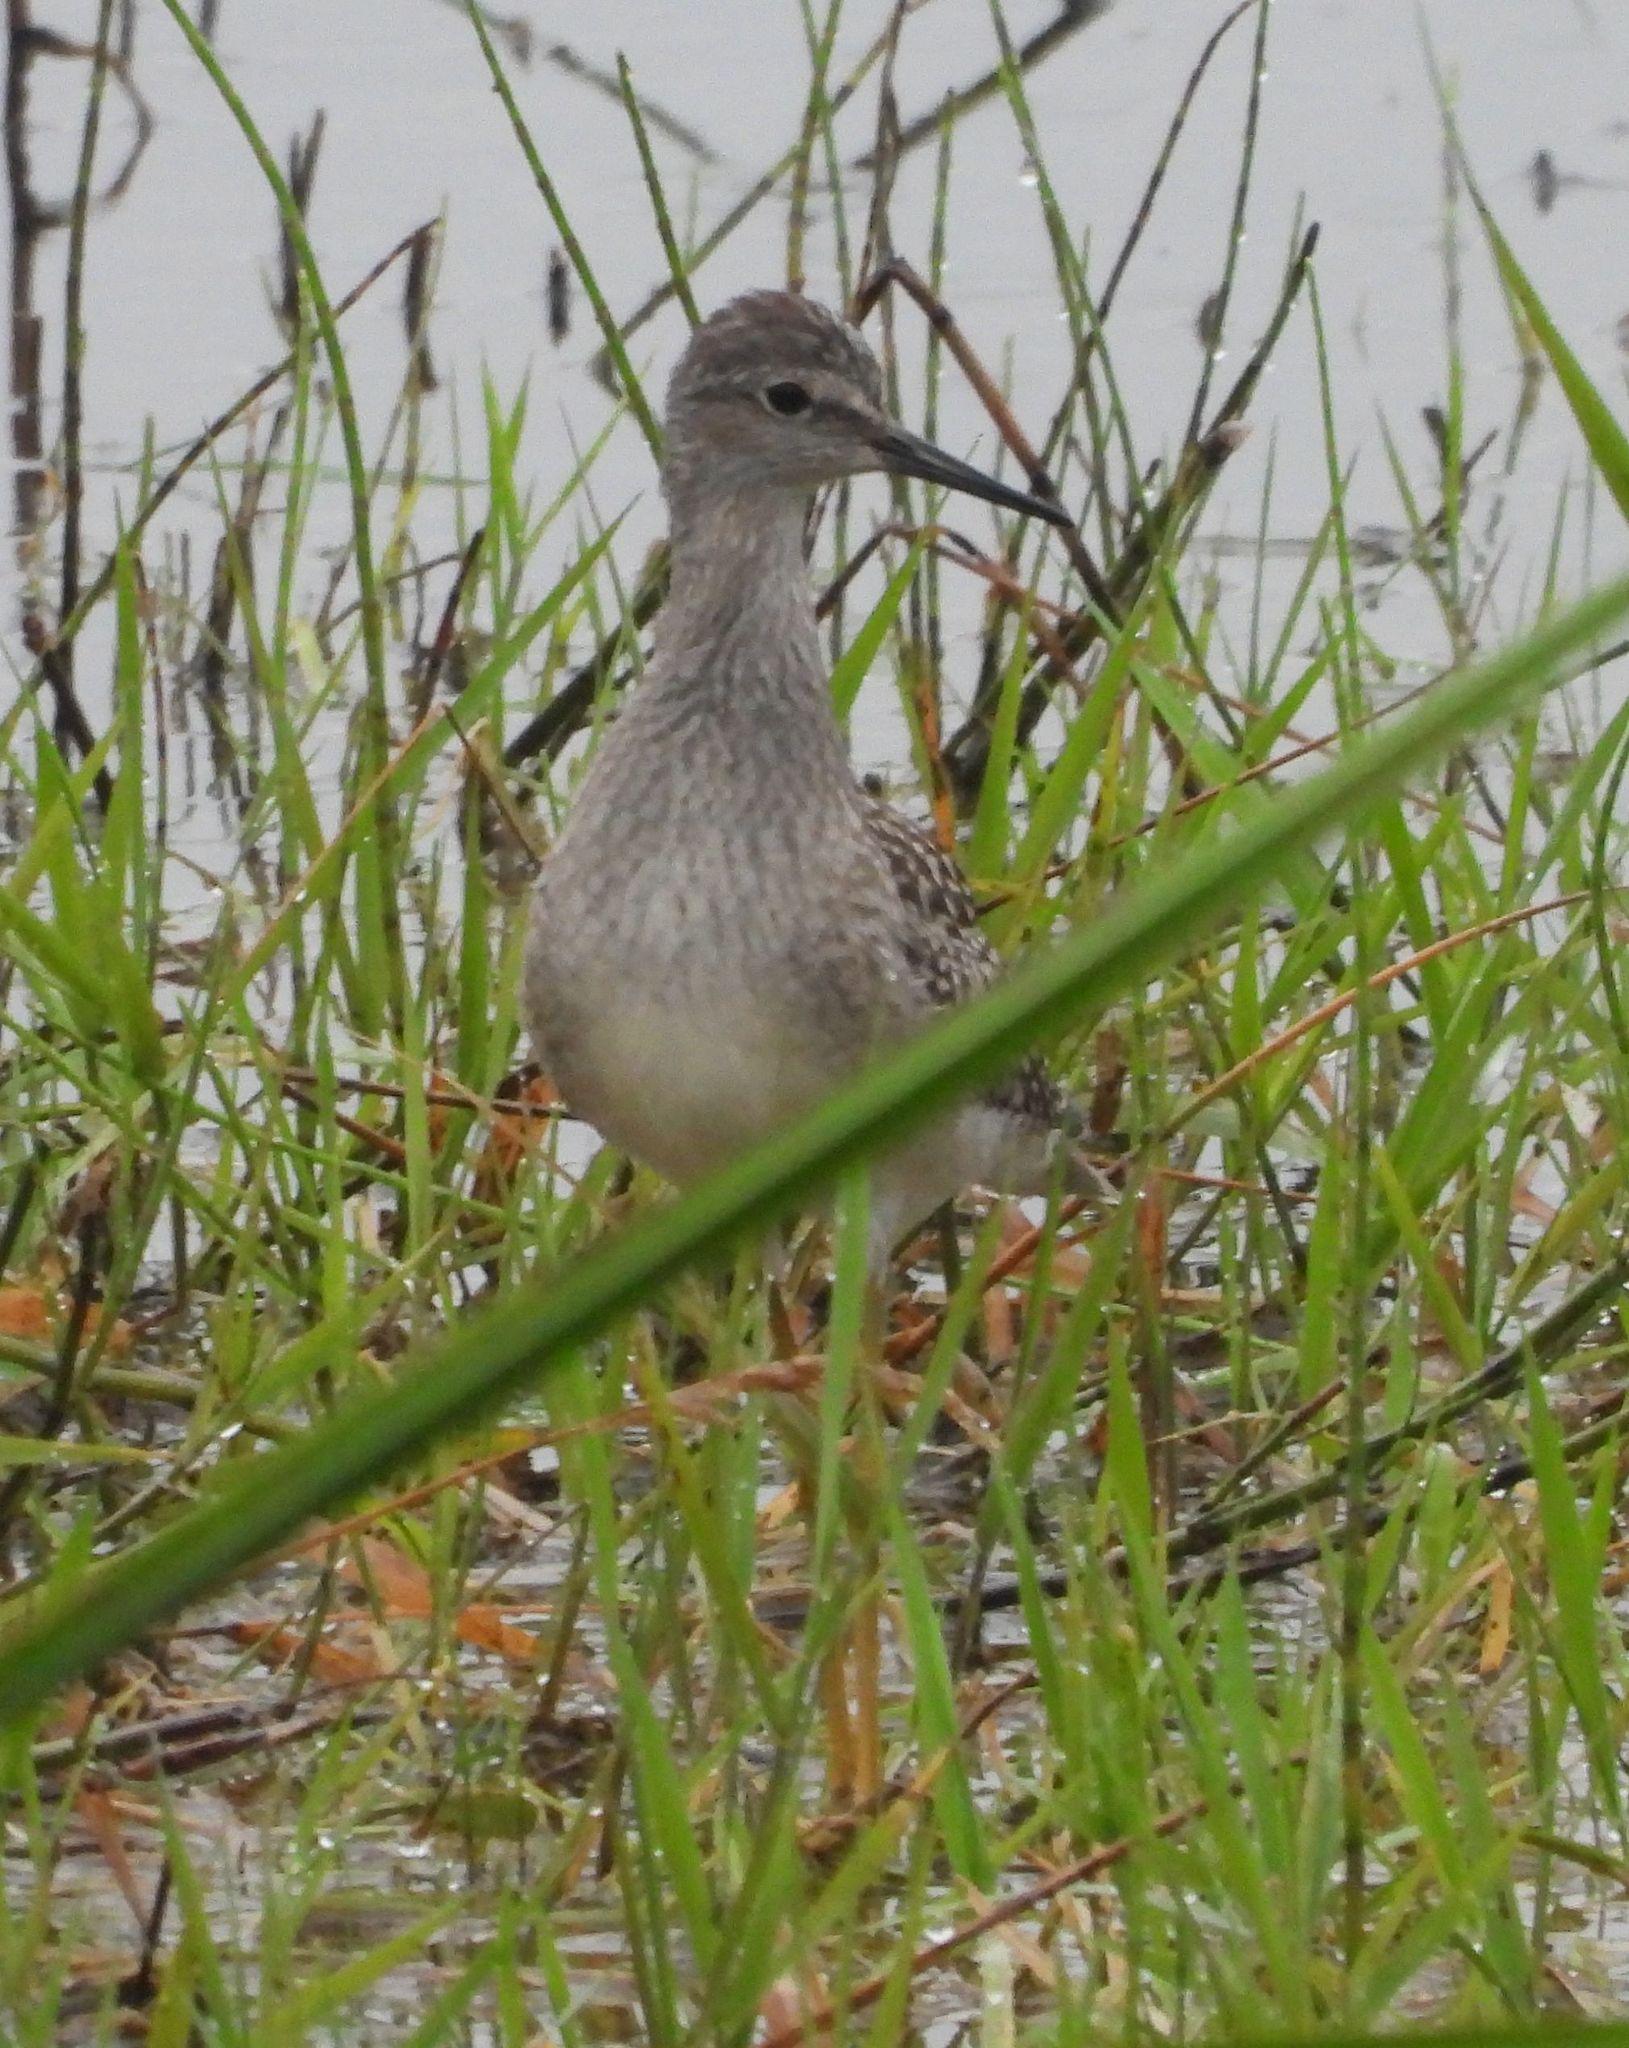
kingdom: Animalia
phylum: Chordata
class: Aves
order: Charadriiformes
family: Scolopacidae
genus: Tringa
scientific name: Tringa flavipes
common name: Lesser yellowlegs
